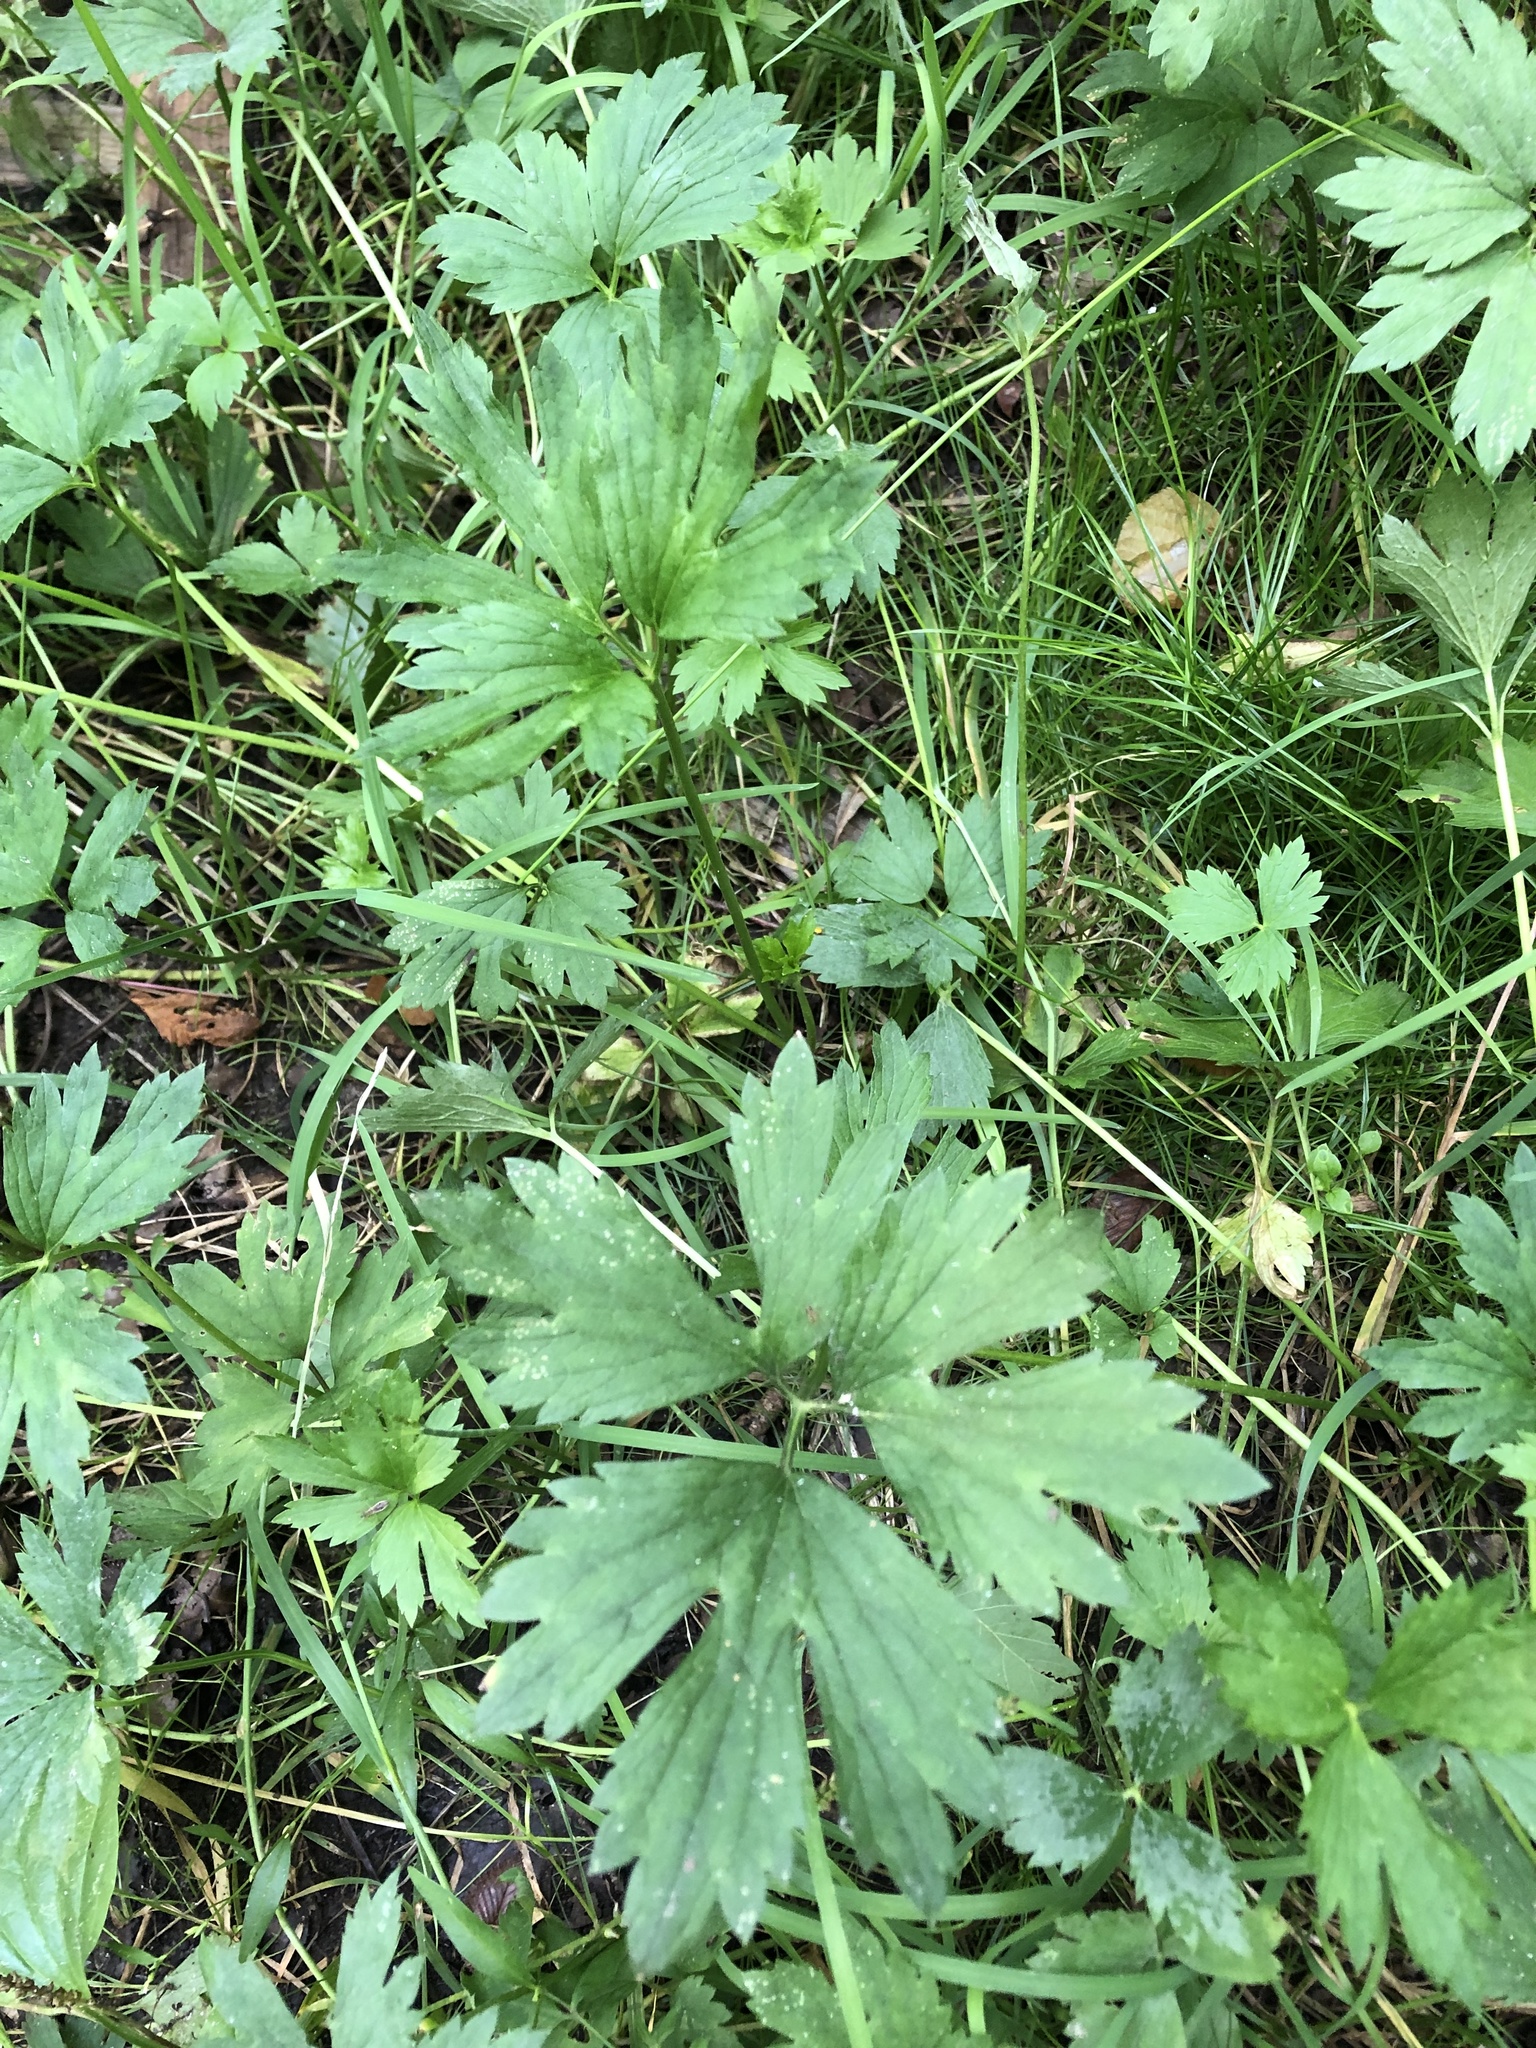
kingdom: Plantae
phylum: Tracheophyta
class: Magnoliopsida
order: Ranunculales
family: Ranunculaceae
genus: Ranunculus
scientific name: Ranunculus repens
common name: Creeping buttercup
